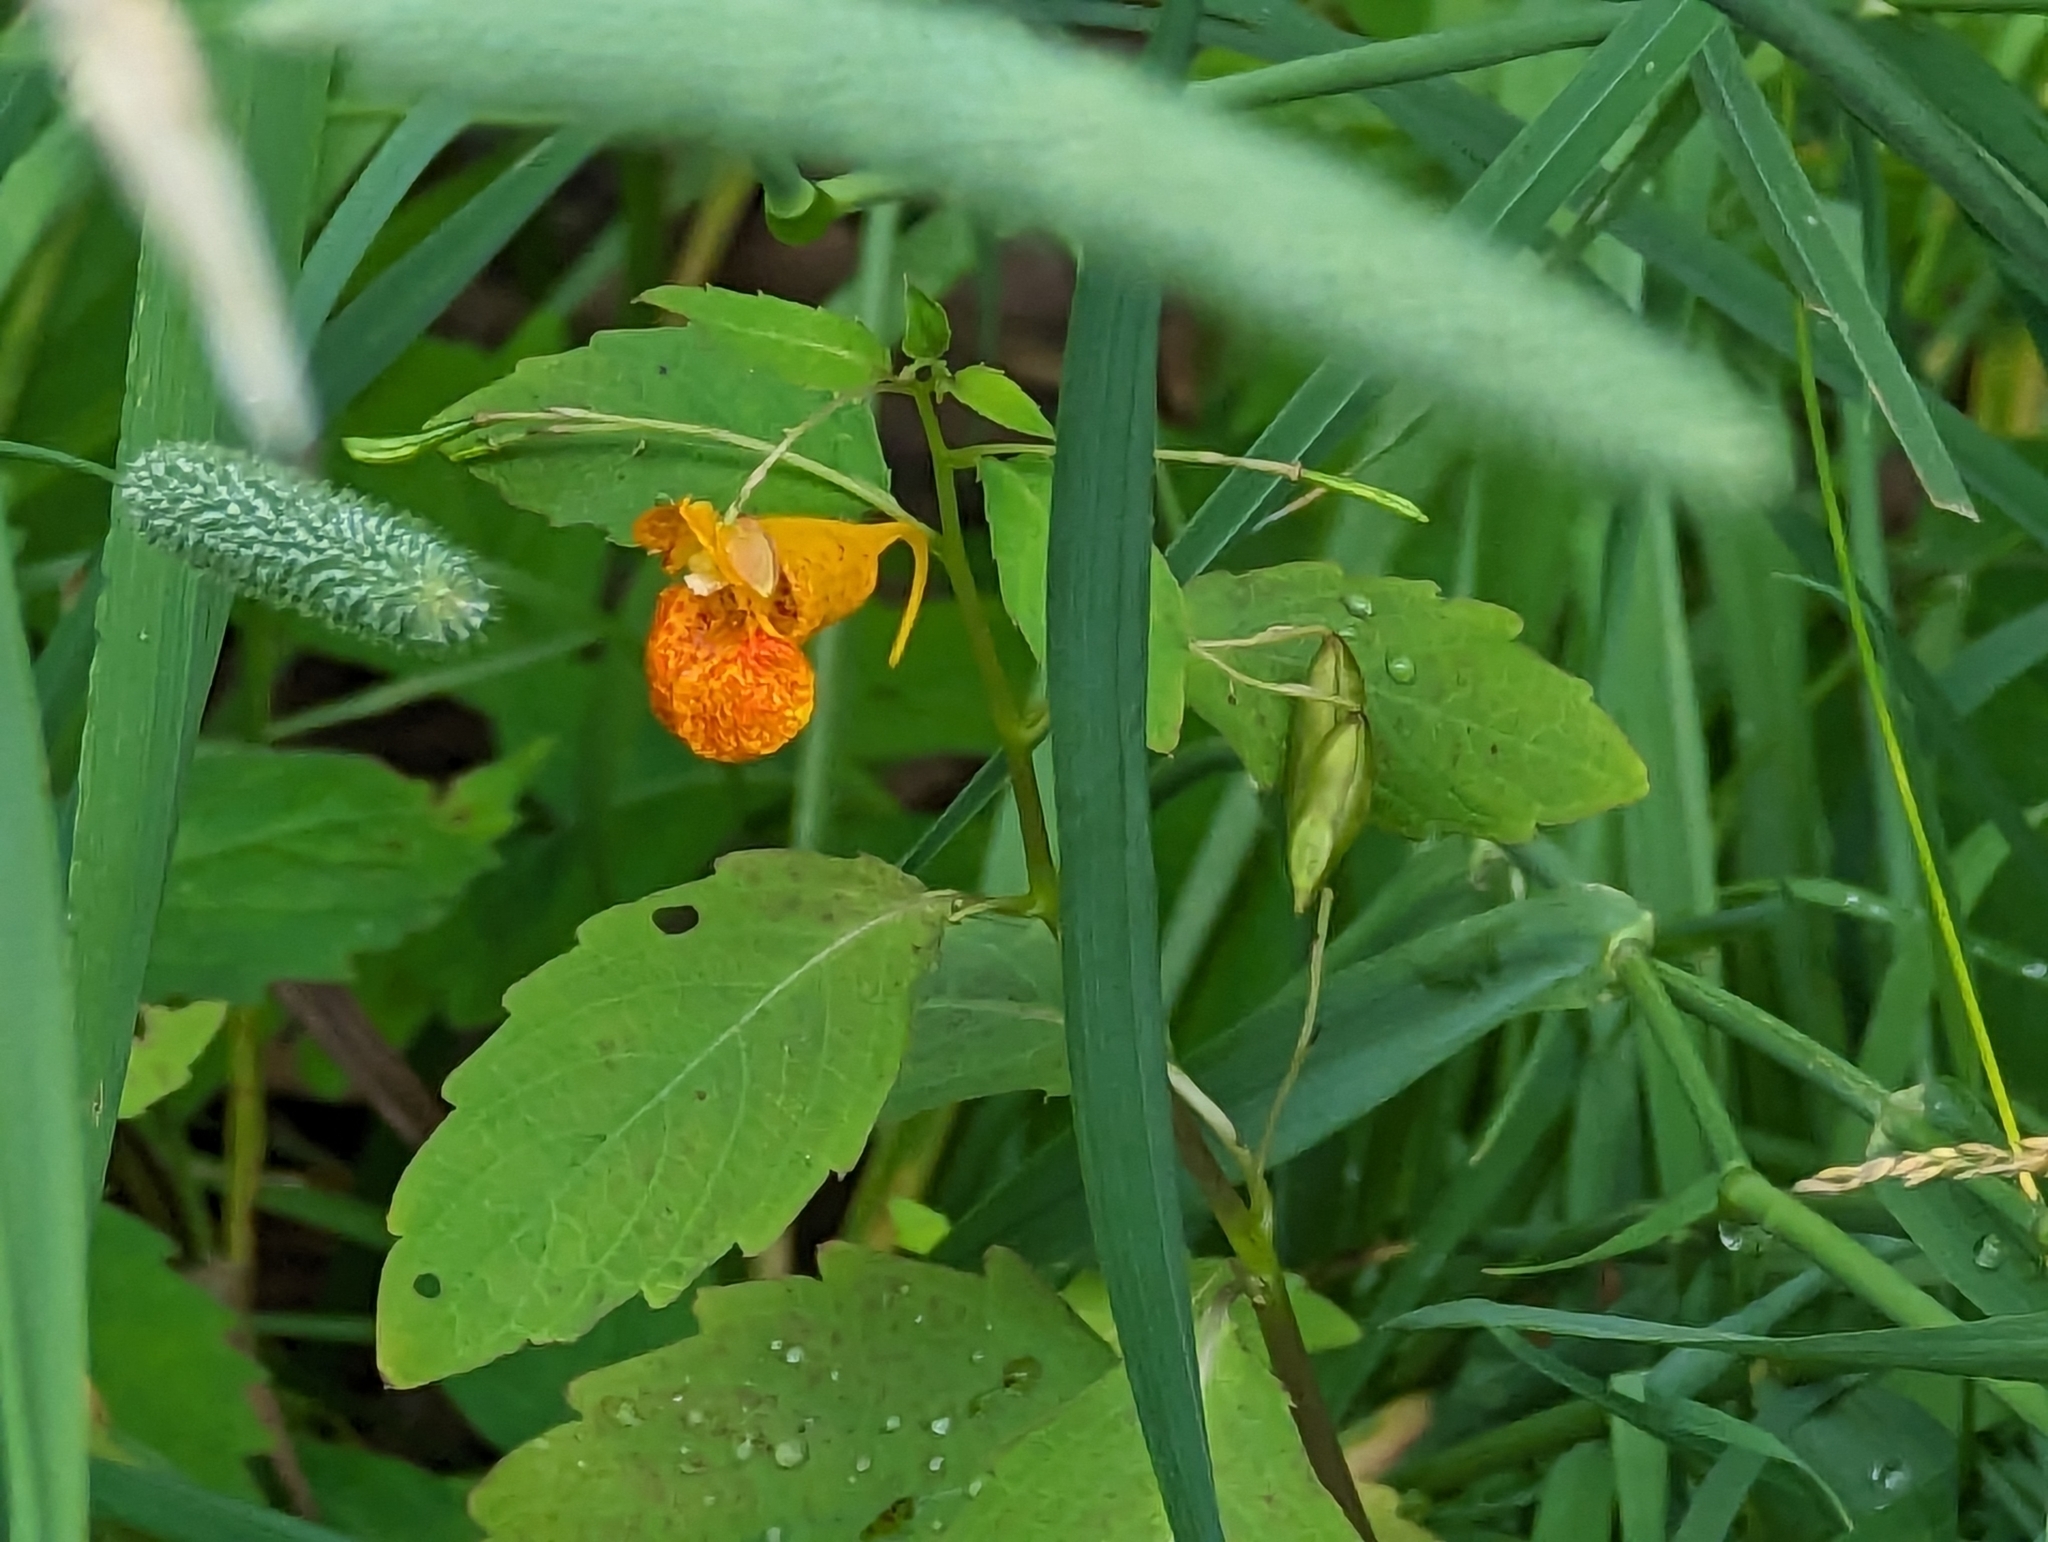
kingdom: Plantae
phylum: Tracheophyta
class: Magnoliopsida
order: Ericales
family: Balsaminaceae
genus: Impatiens
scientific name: Impatiens capensis
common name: Orange balsam
